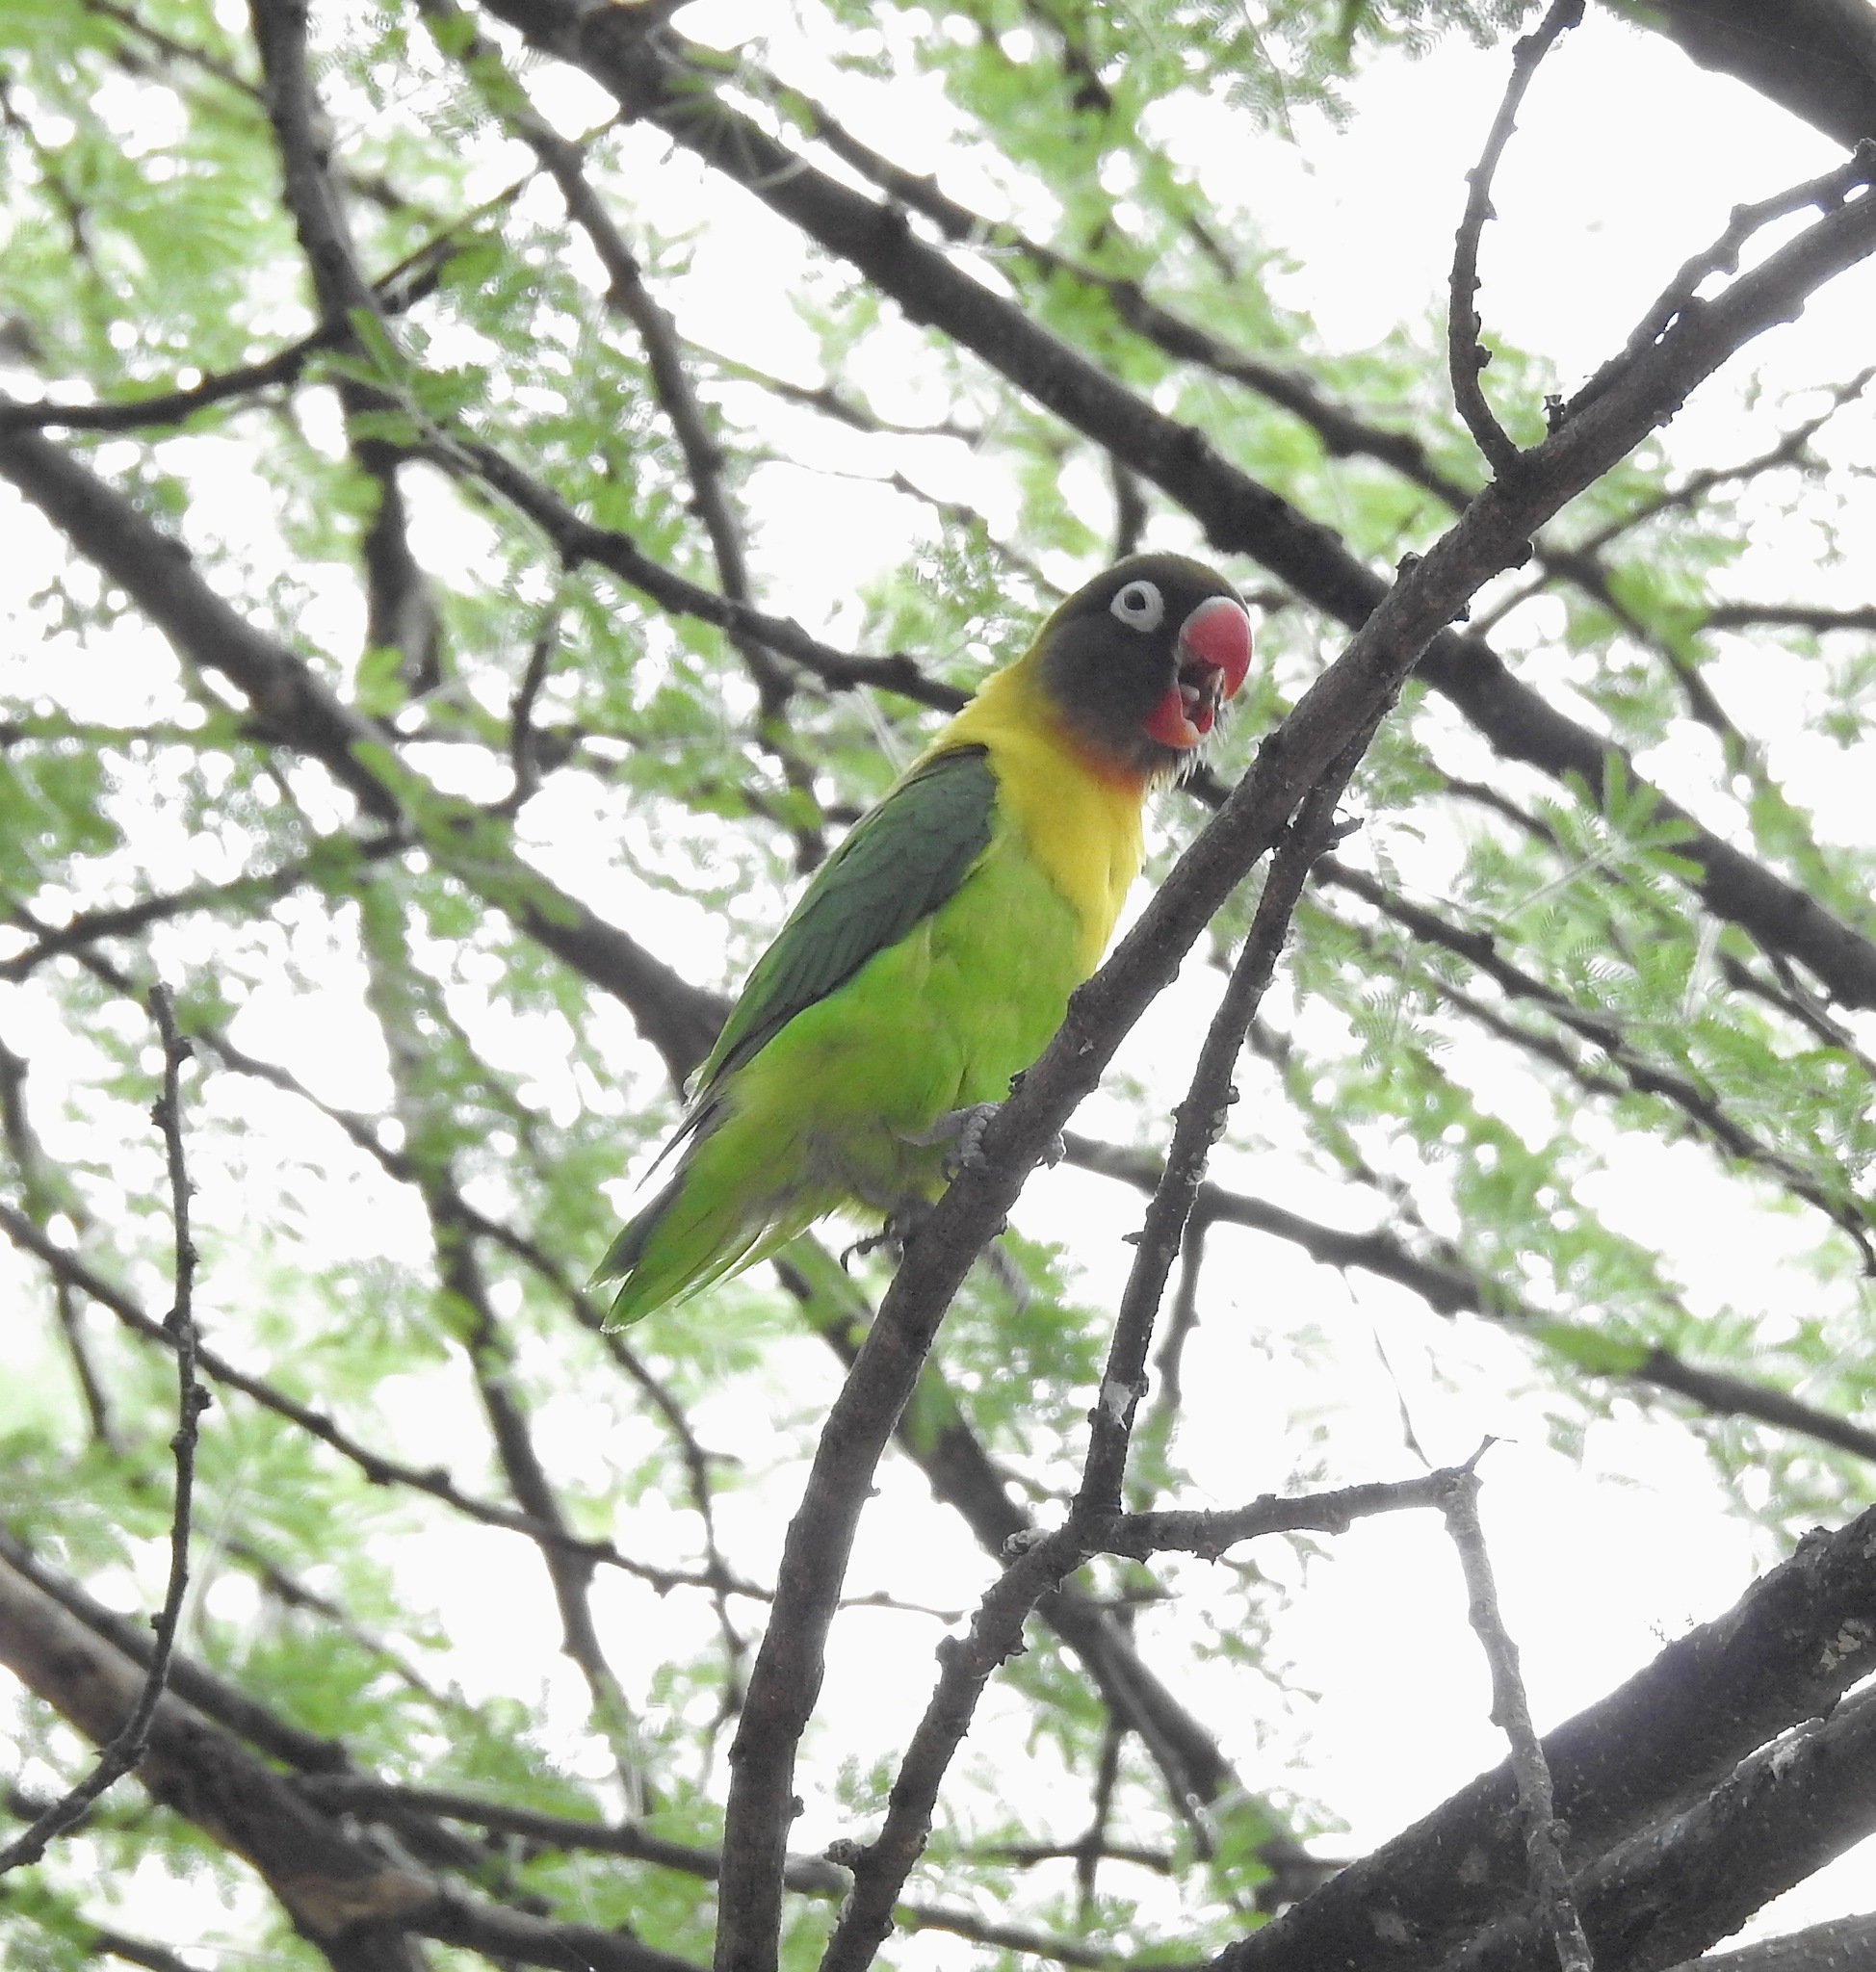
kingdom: Animalia
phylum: Chordata
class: Aves
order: Psittaciformes
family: Psittacidae
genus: Agapornis
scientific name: Agapornis personatus
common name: Yellow-collared lovebird
